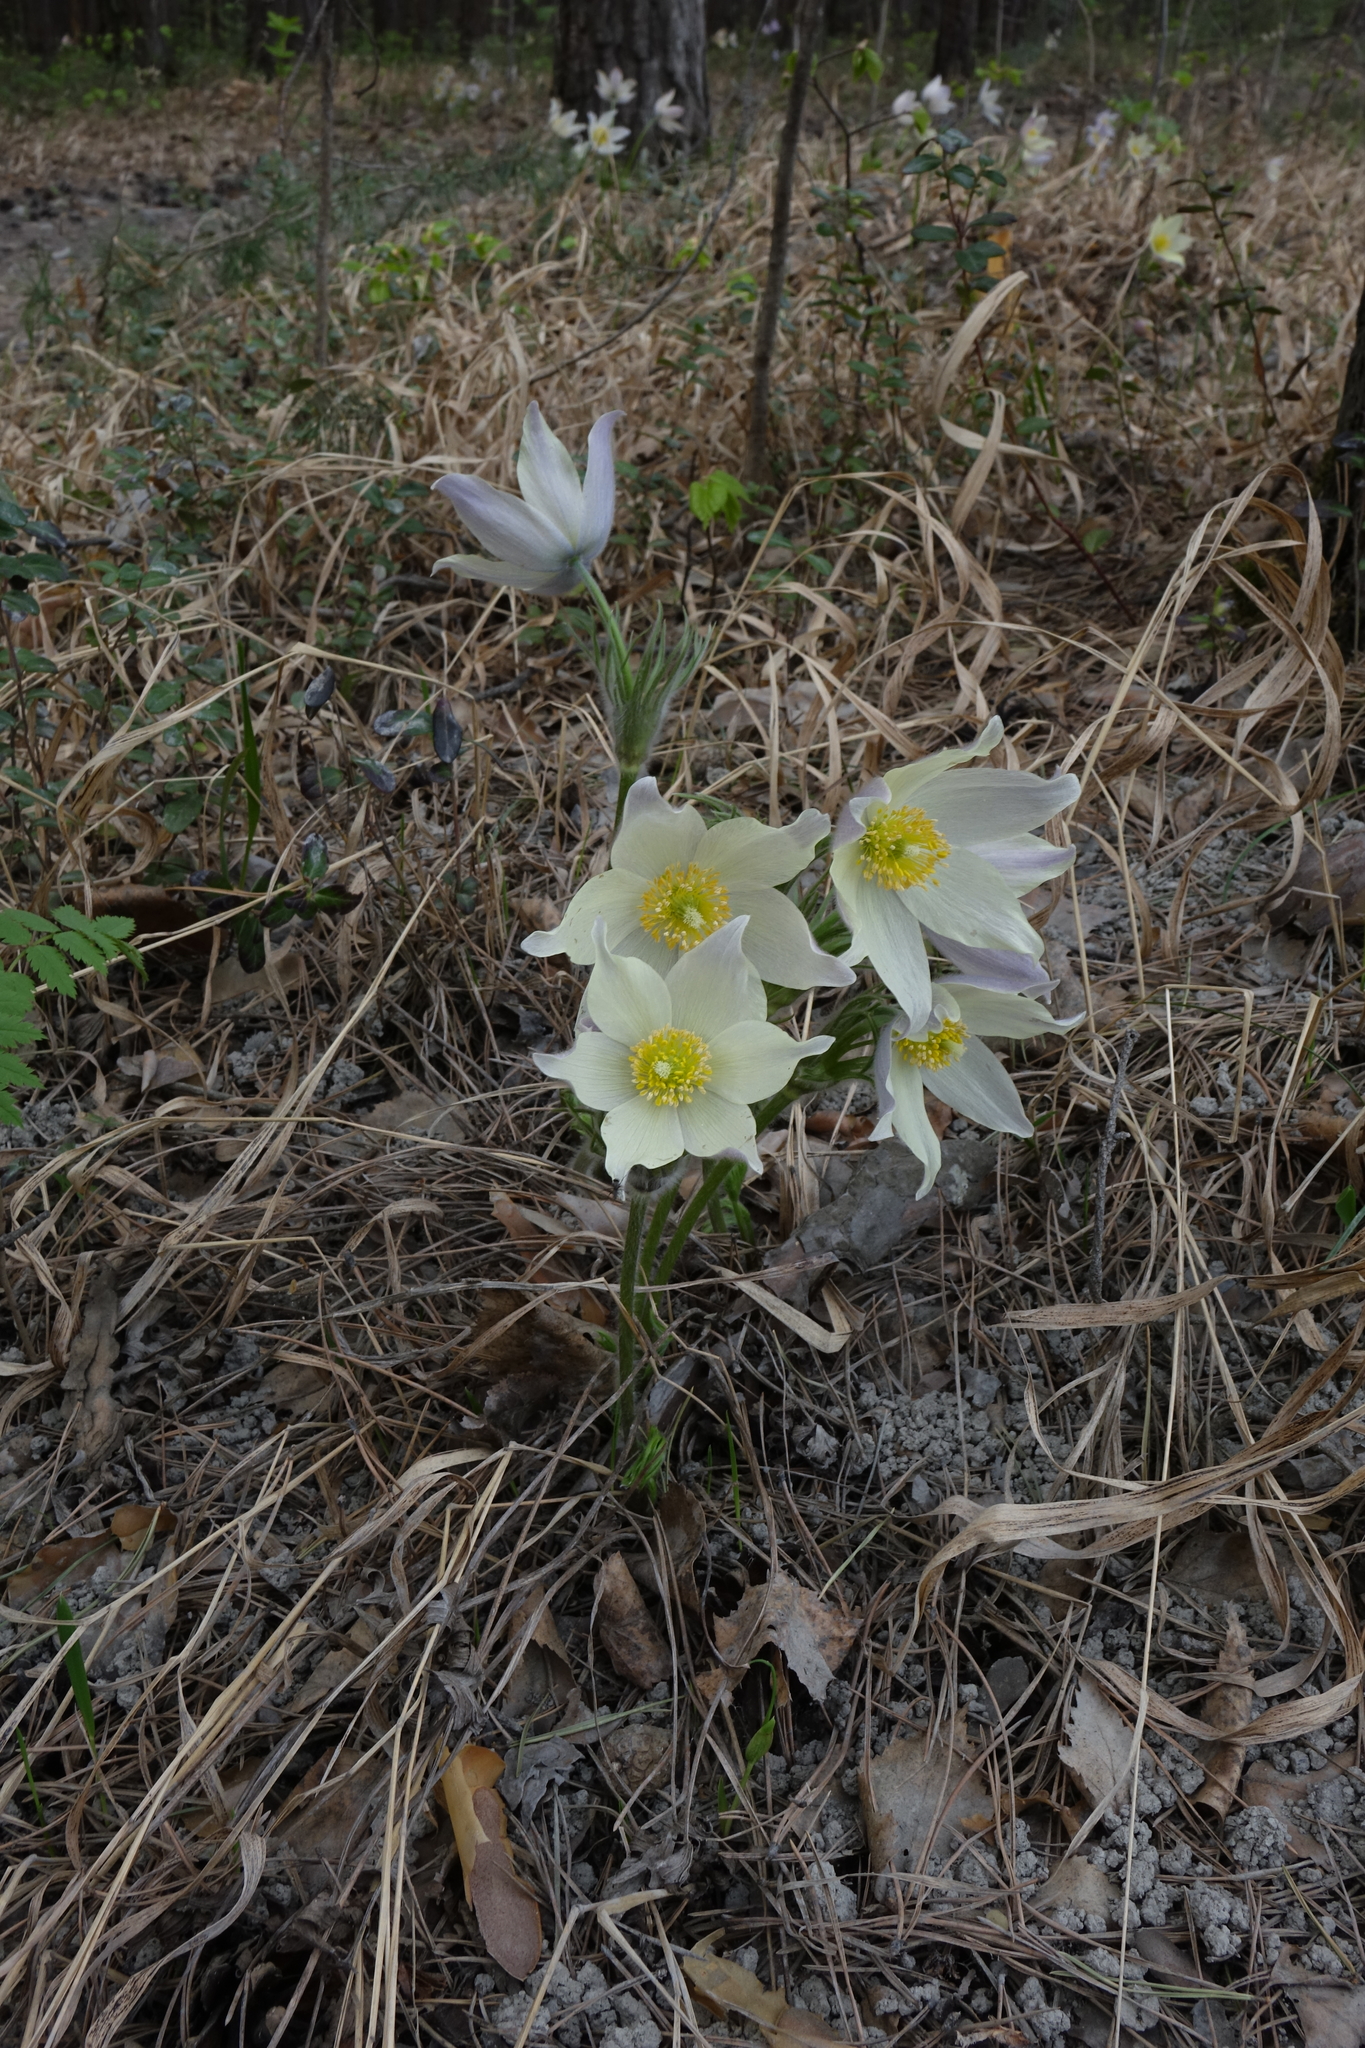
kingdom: Plantae
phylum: Tracheophyta
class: Magnoliopsida
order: Ranunculales
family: Ranunculaceae
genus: Pulsatilla
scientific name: Pulsatilla patens
